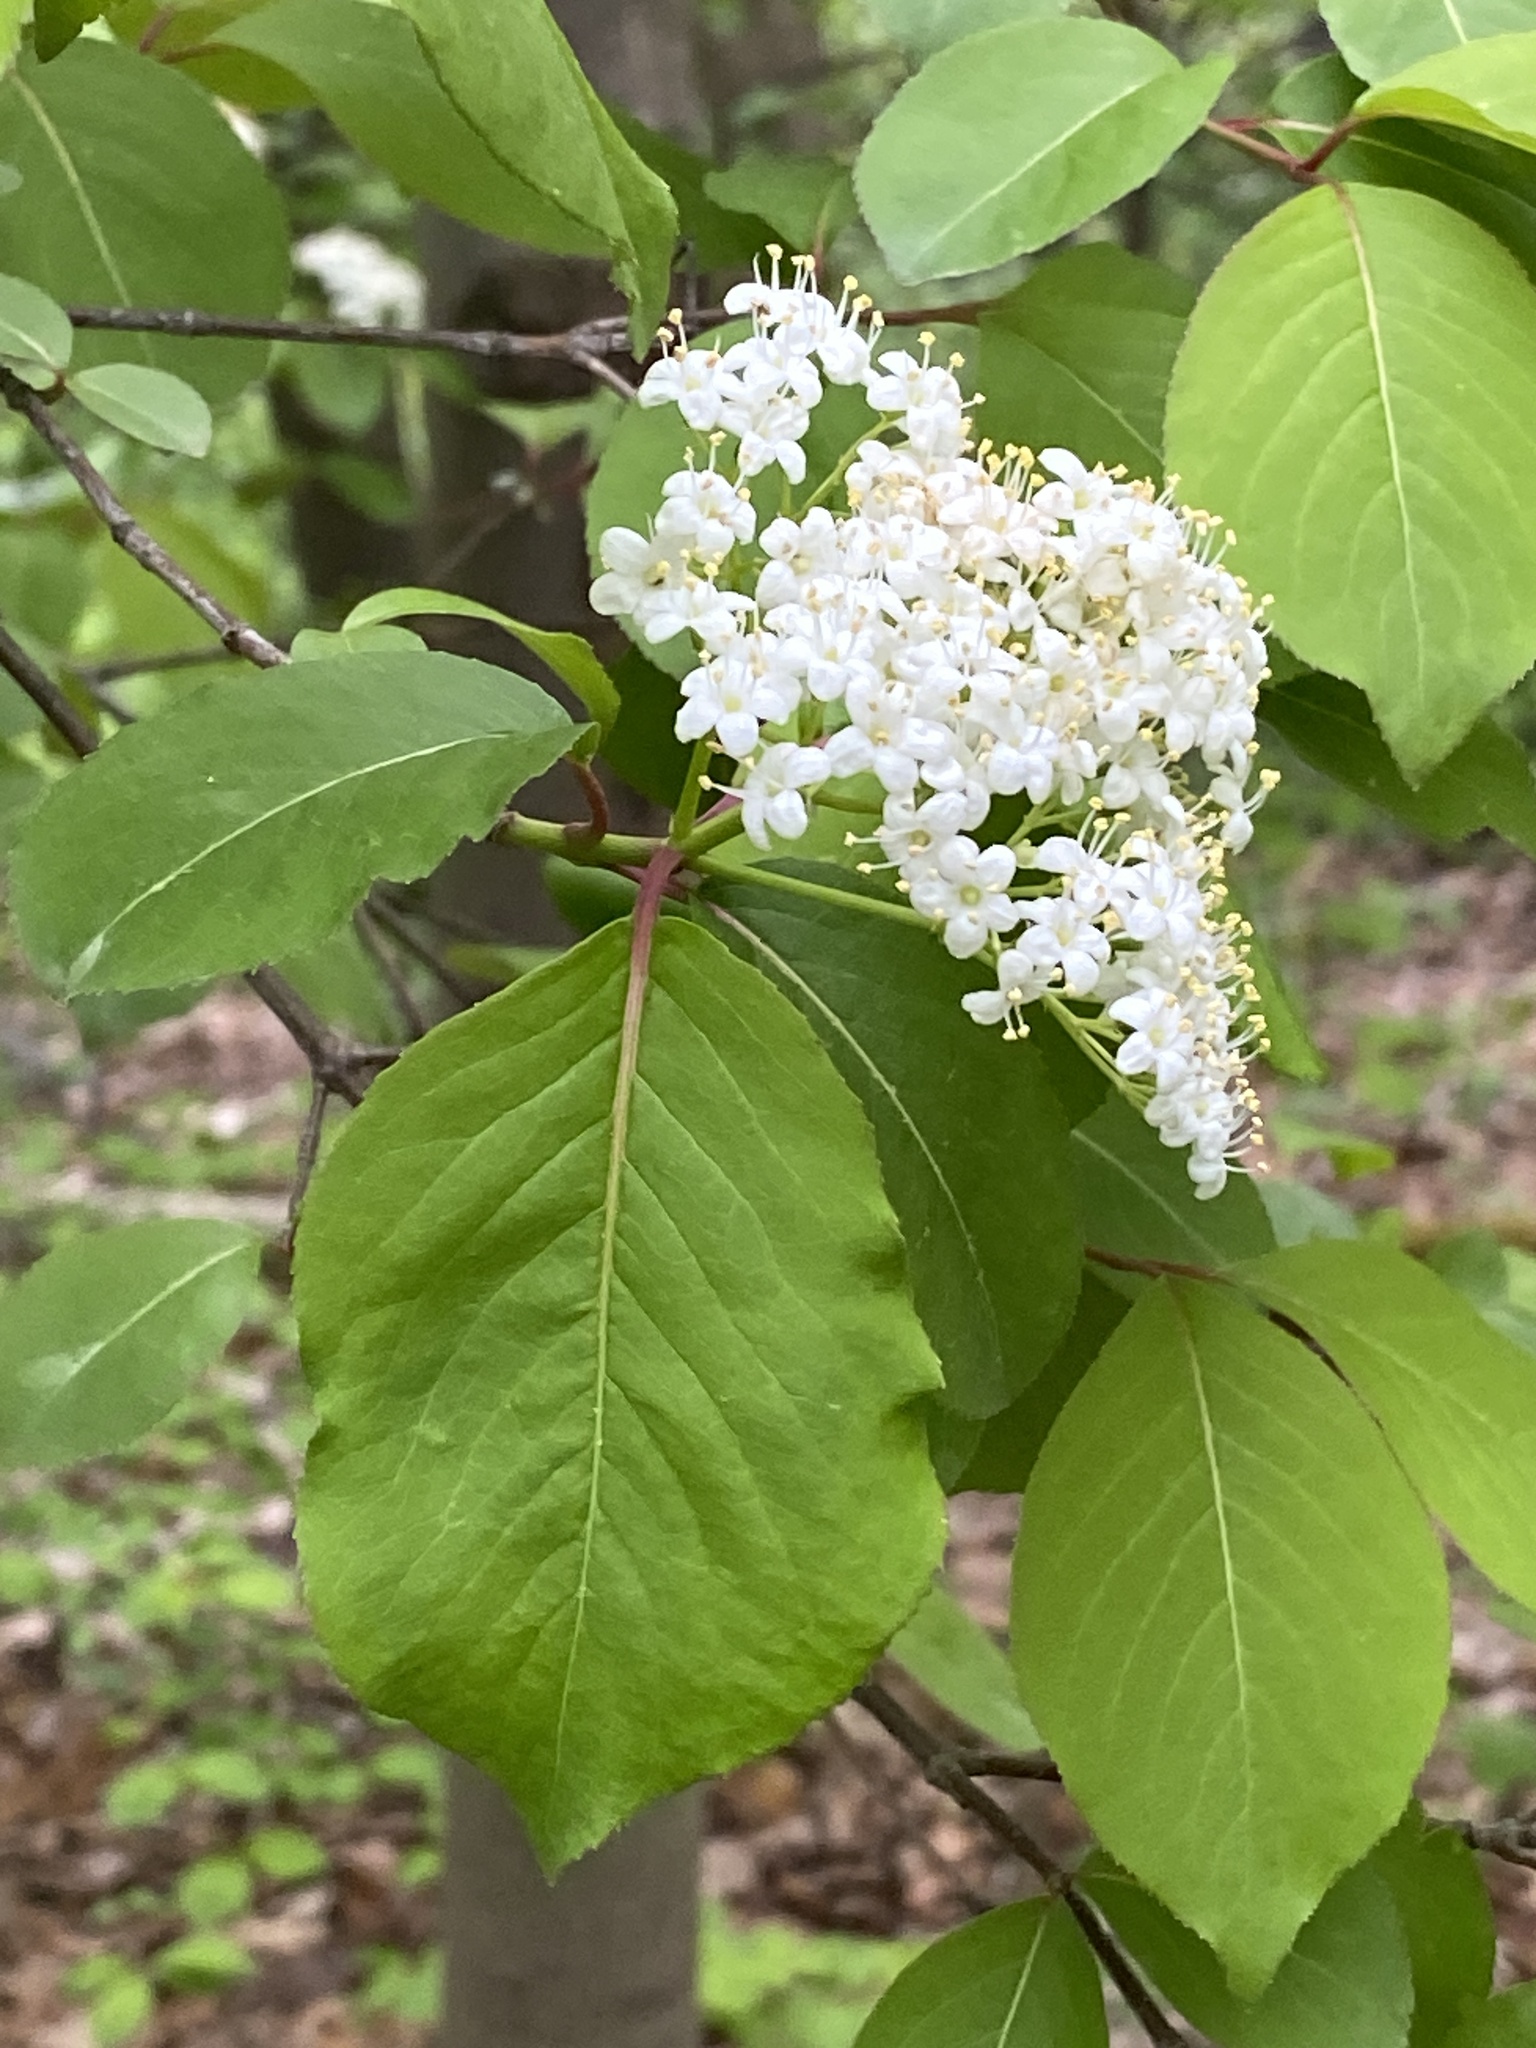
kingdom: Plantae
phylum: Tracheophyta
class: Magnoliopsida
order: Dipsacales
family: Viburnaceae
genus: Viburnum
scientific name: Viburnum prunifolium
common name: Black haw
